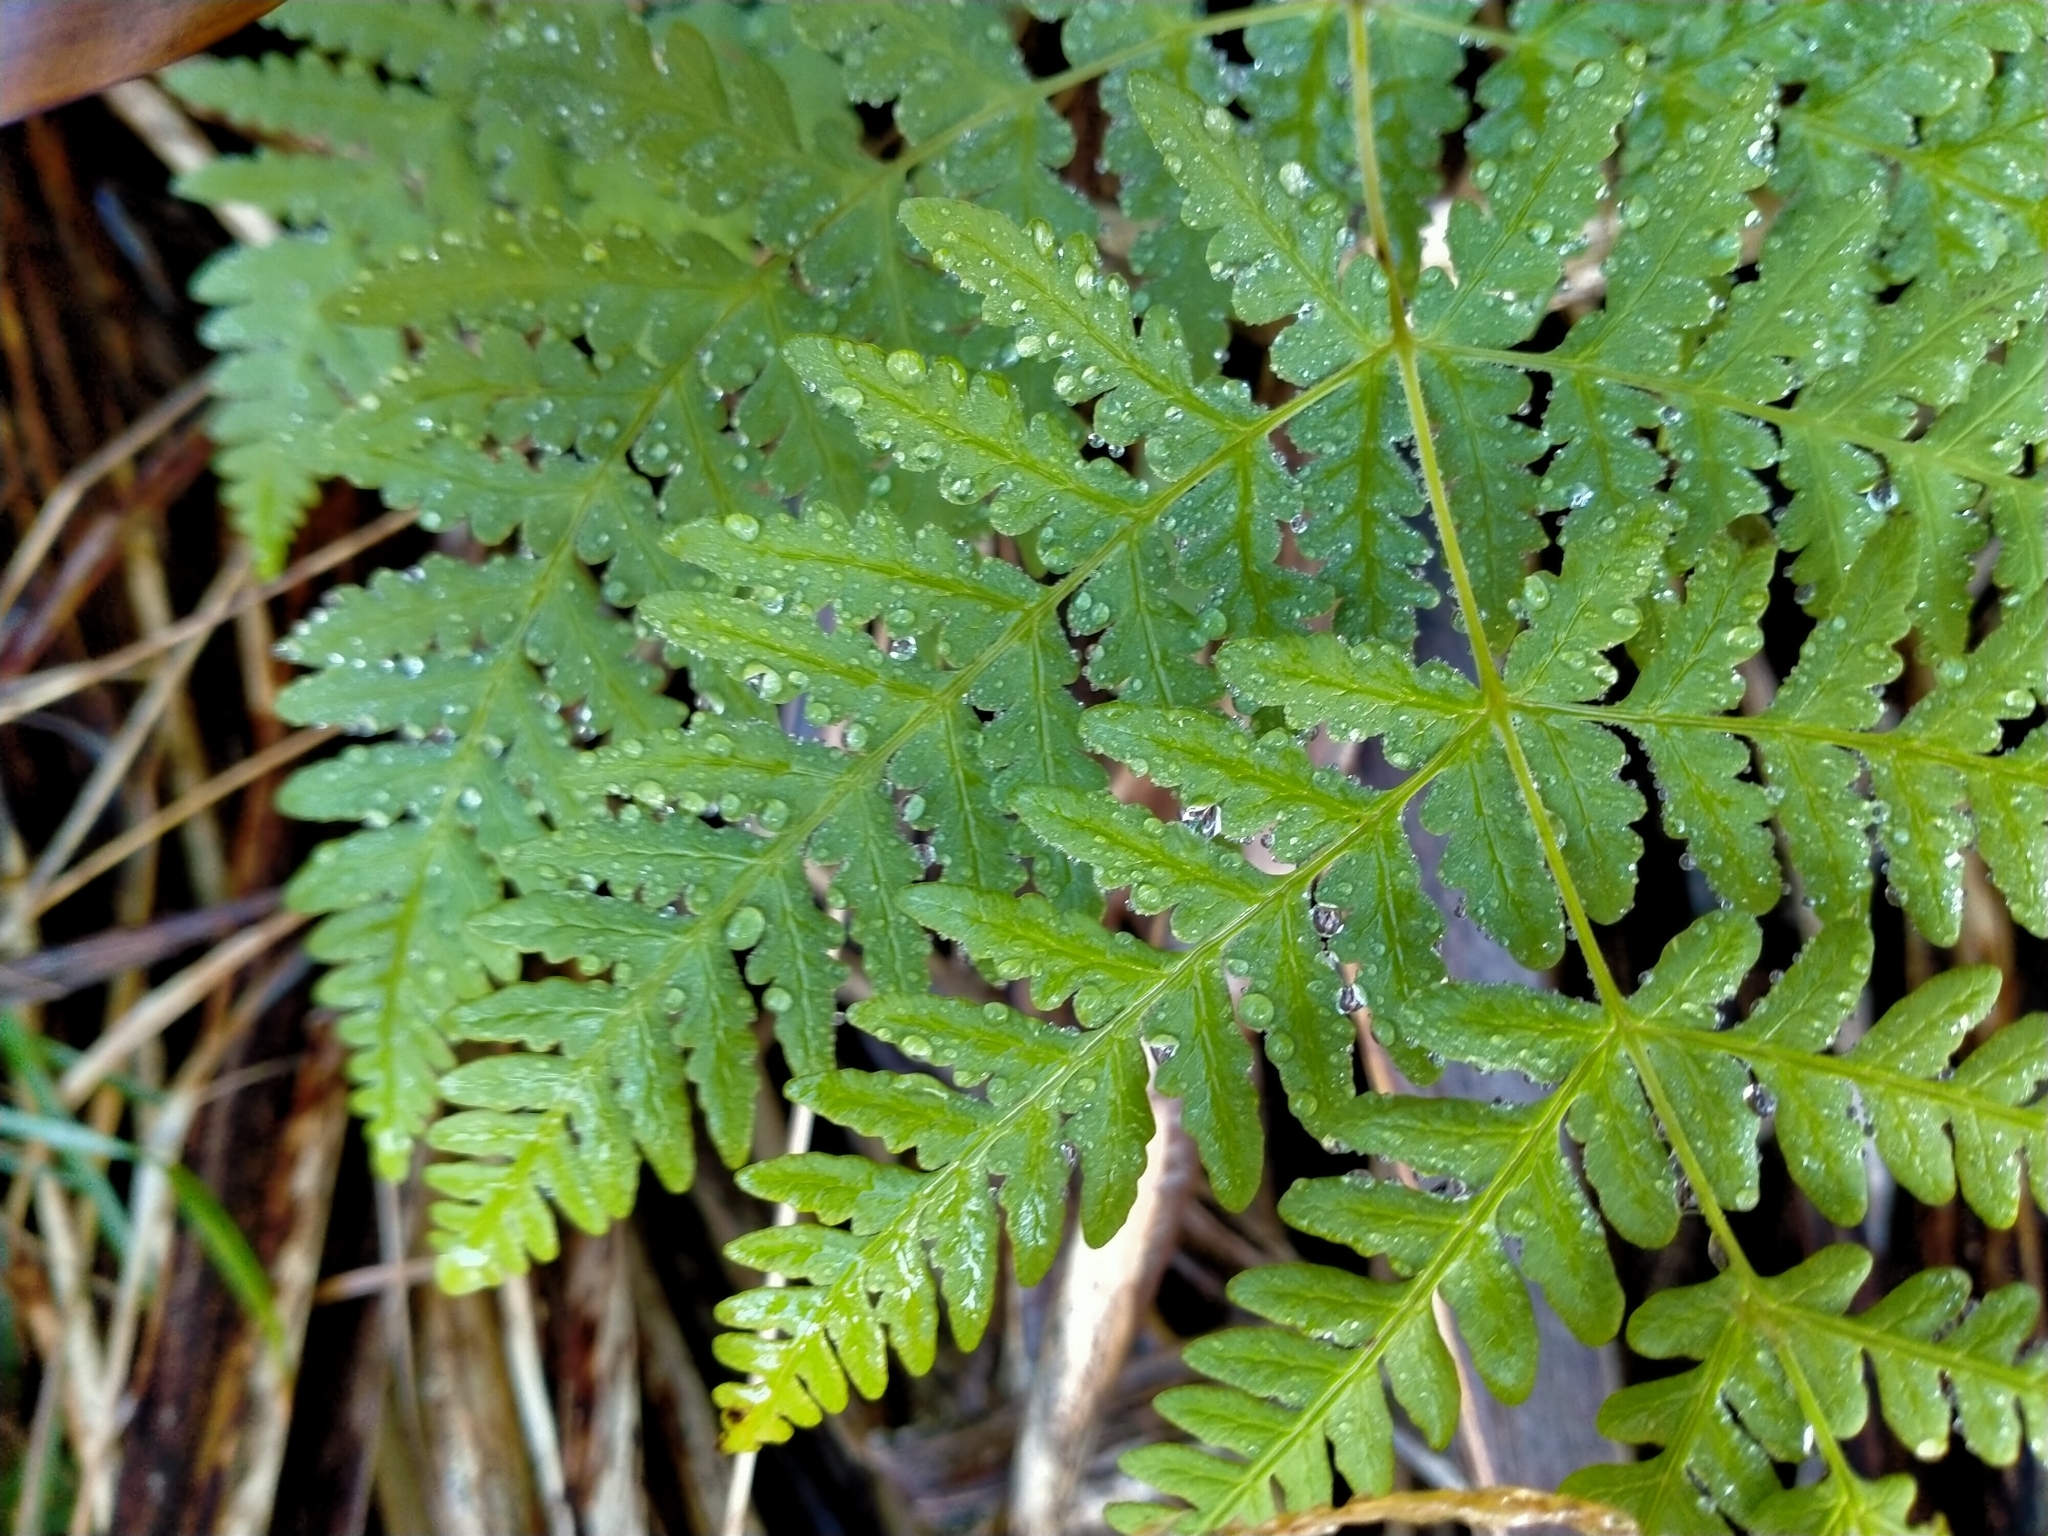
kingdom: Plantae
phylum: Tracheophyta
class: Polypodiopsida
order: Polypodiales
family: Dennstaedtiaceae
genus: Histiopteris
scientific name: Histiopteris incisa
